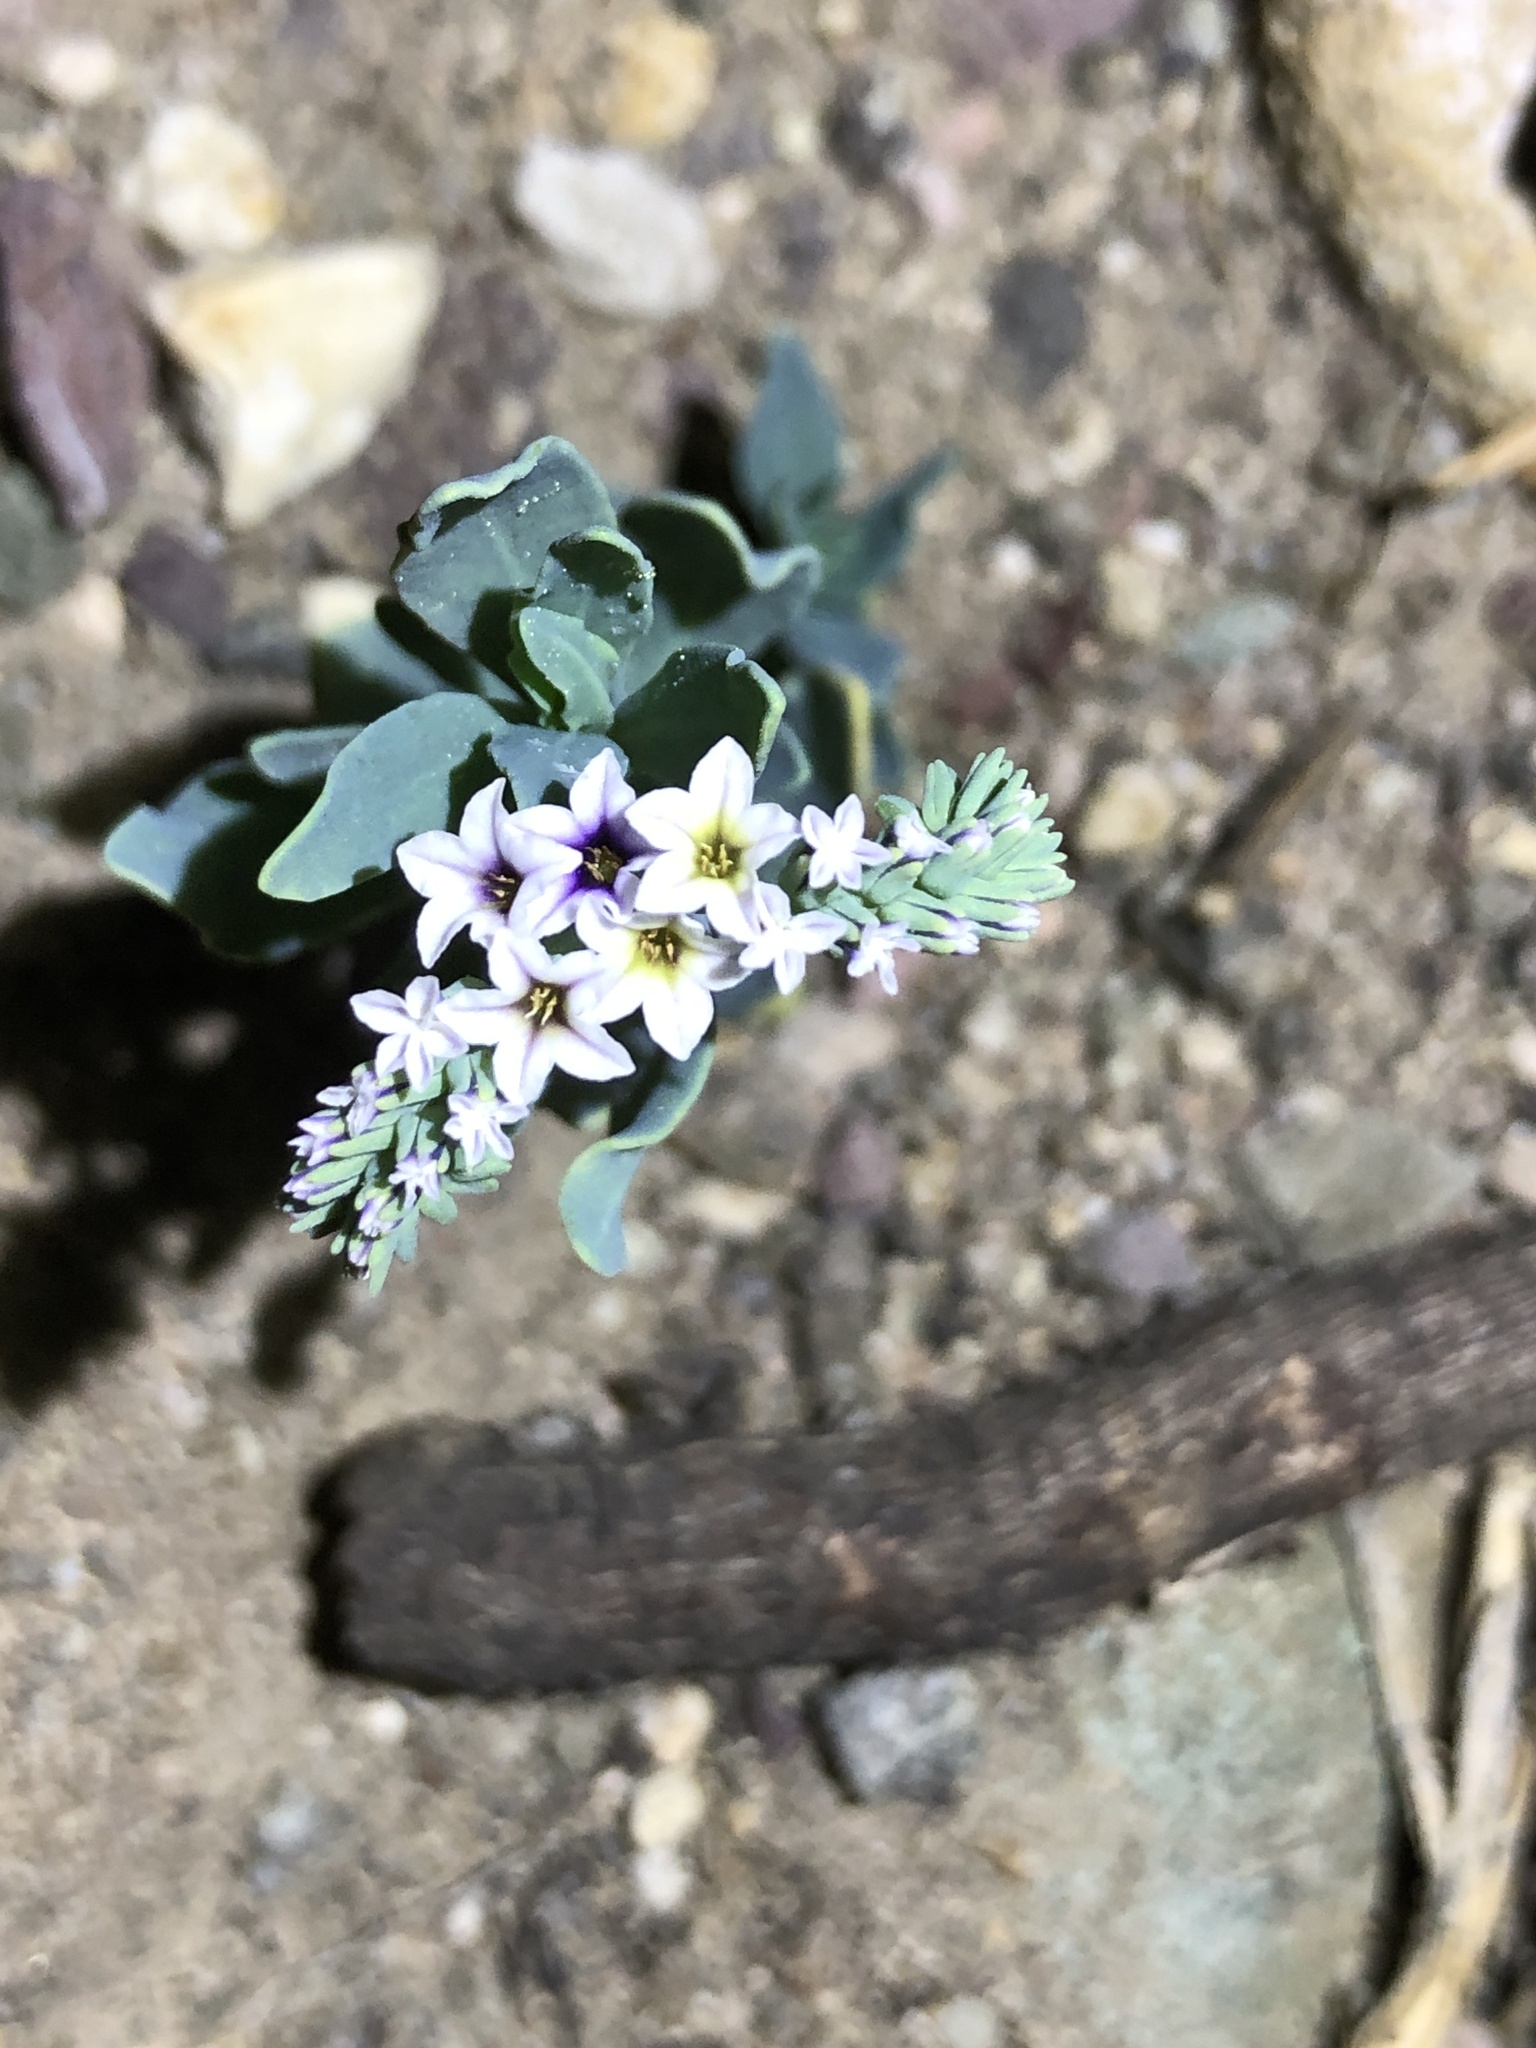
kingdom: Plantae
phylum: Tracheophyta
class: Magnoliopsida
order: Boraginales
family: Heliotropiaceae
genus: Heliotropium
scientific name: Heliotropium curassavicum
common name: Seaside heliotrope
